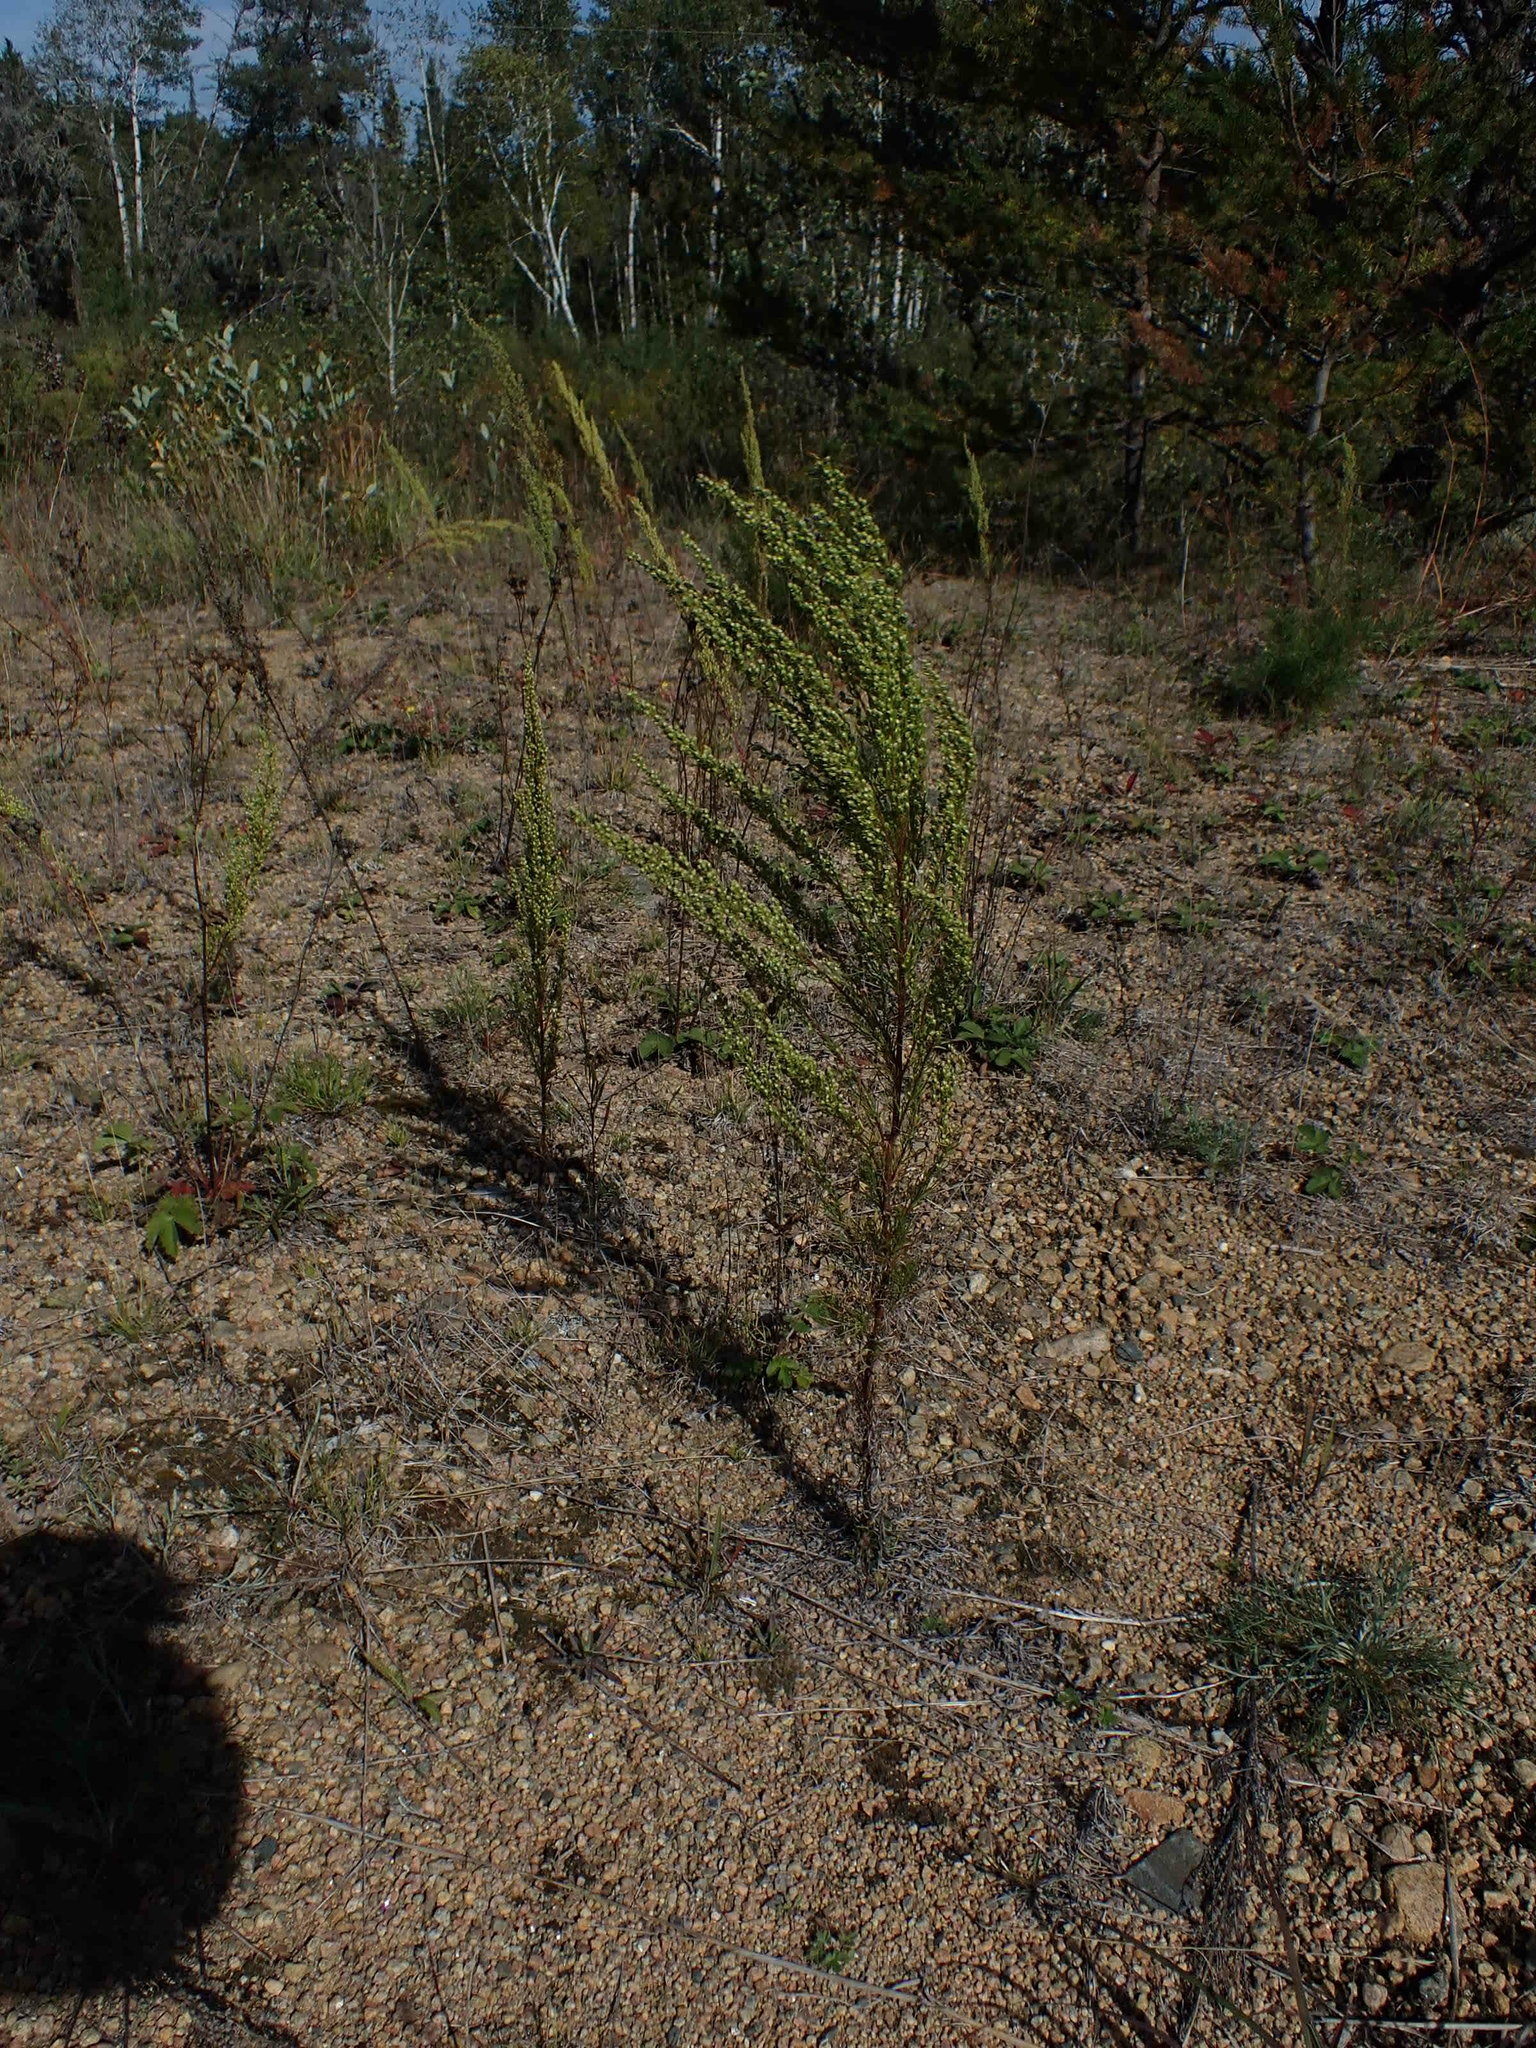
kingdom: Plantae
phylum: Tracheophyta
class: Magnoliopsida
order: Asterales
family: Asteraceae
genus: Artemisia
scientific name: Artemisia campestris
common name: Field wormwood
